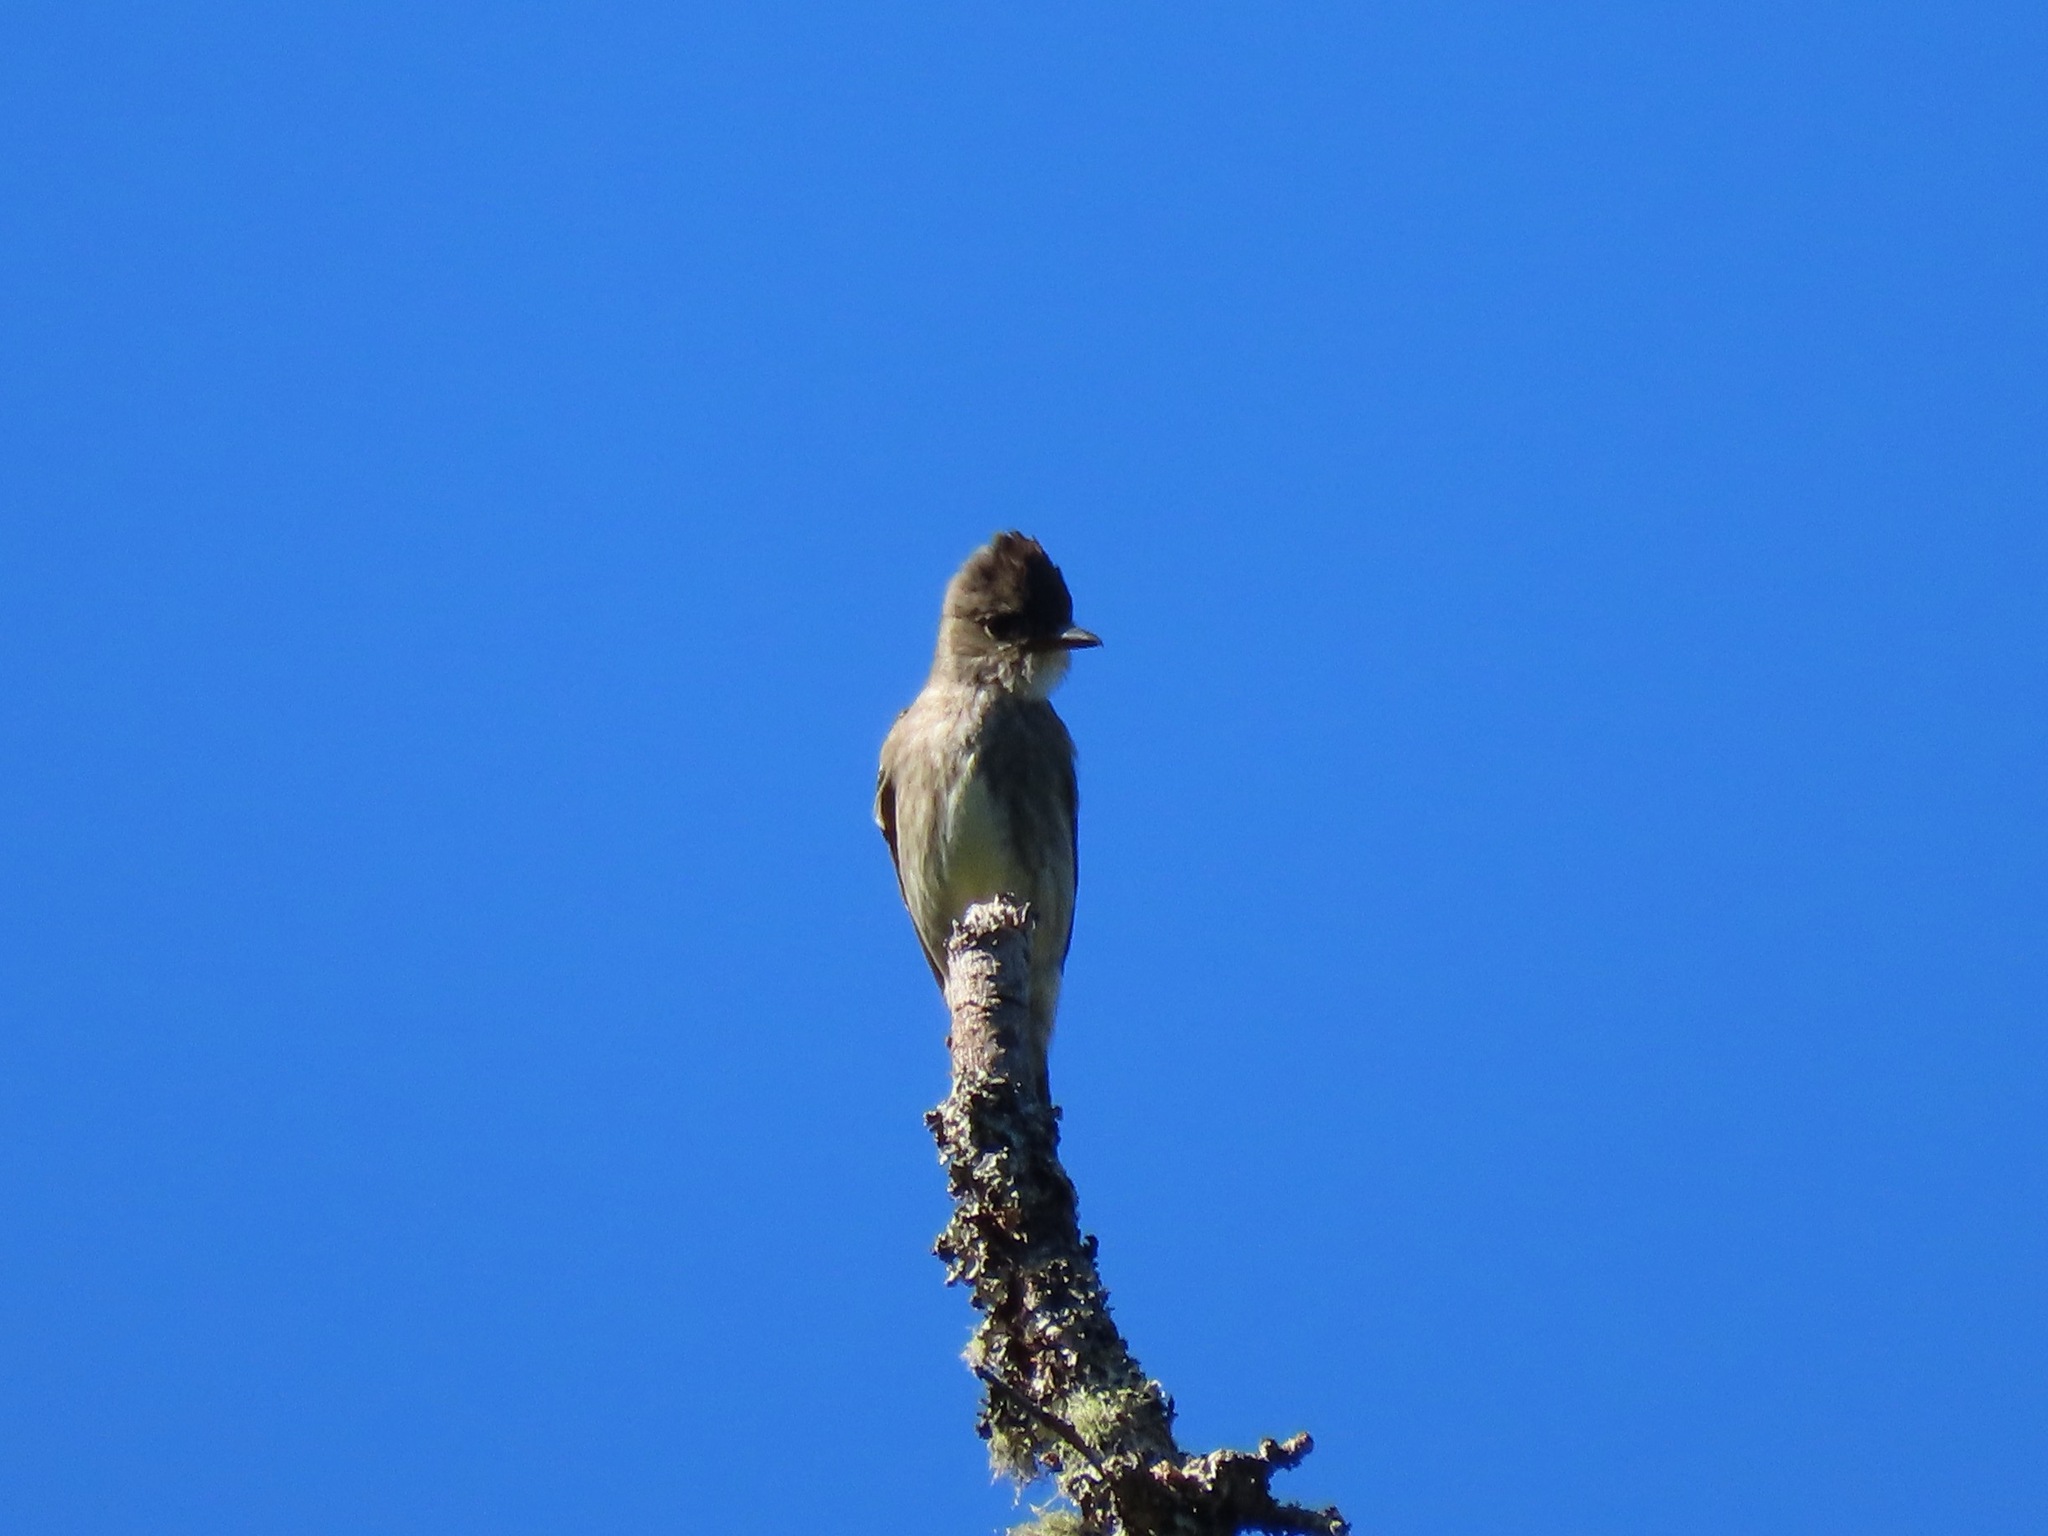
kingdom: Animalia
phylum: Chordata
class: Aves
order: Passeriformes
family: Tyrannidae
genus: Contopus
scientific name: Contopus cooperi
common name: Olive-sided flycatcher
